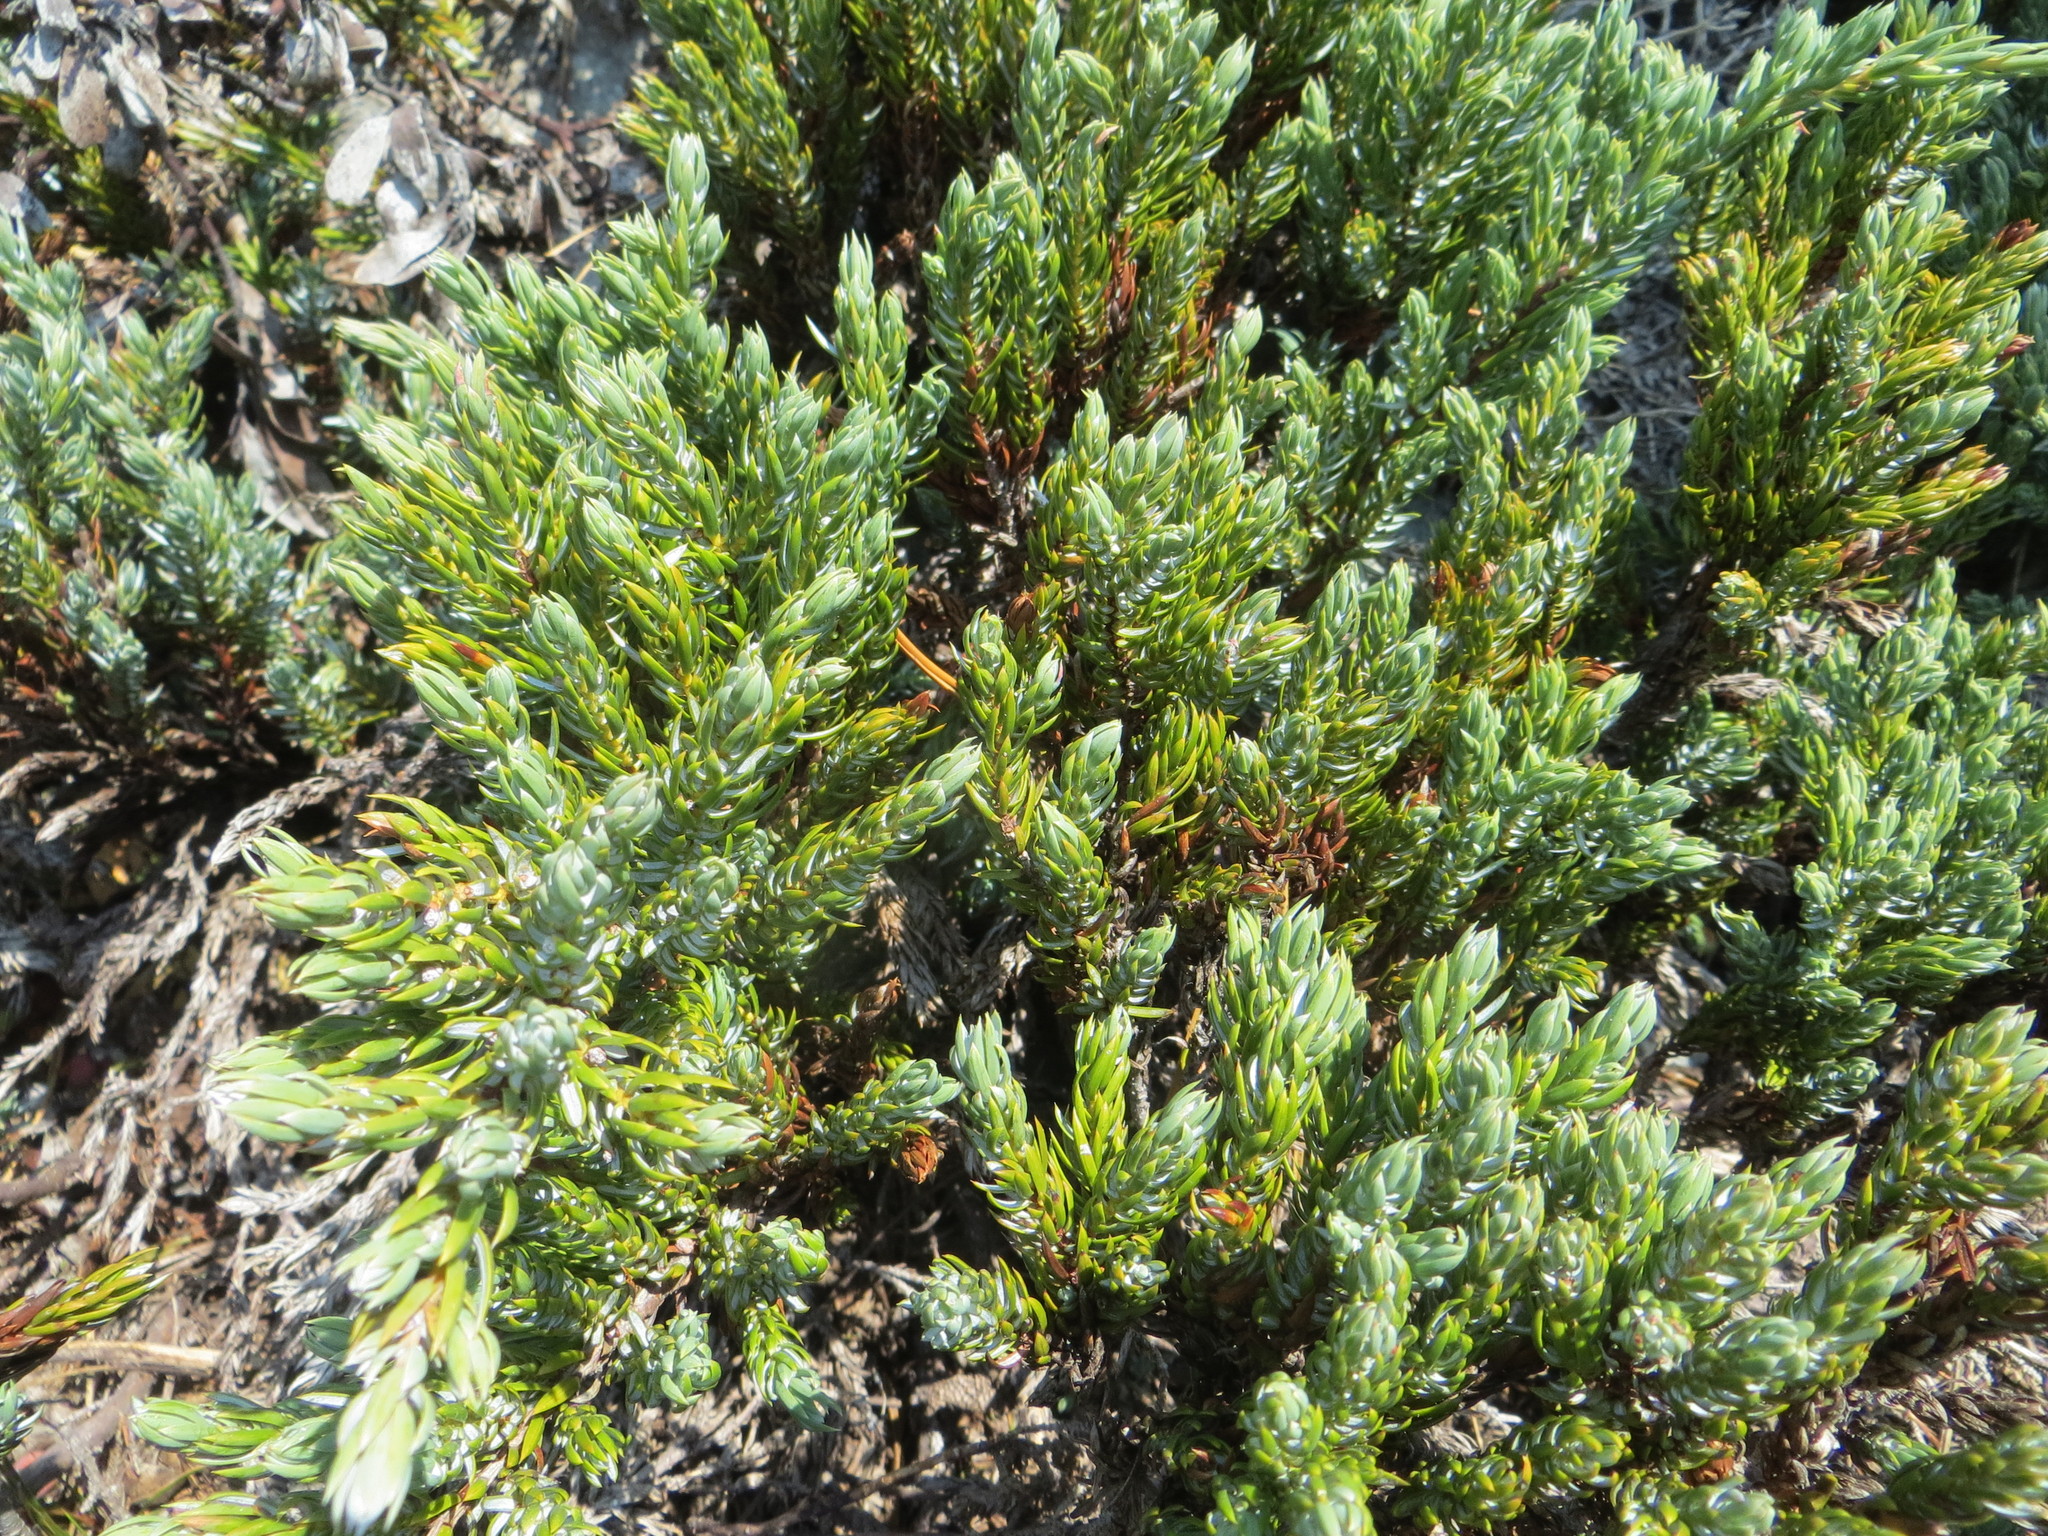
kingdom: Plantae
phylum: Tracheophyta
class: Pinopsida
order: Pinales
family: Cupressaceae
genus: Juniperus
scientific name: Juniperus communis
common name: Common juniper
